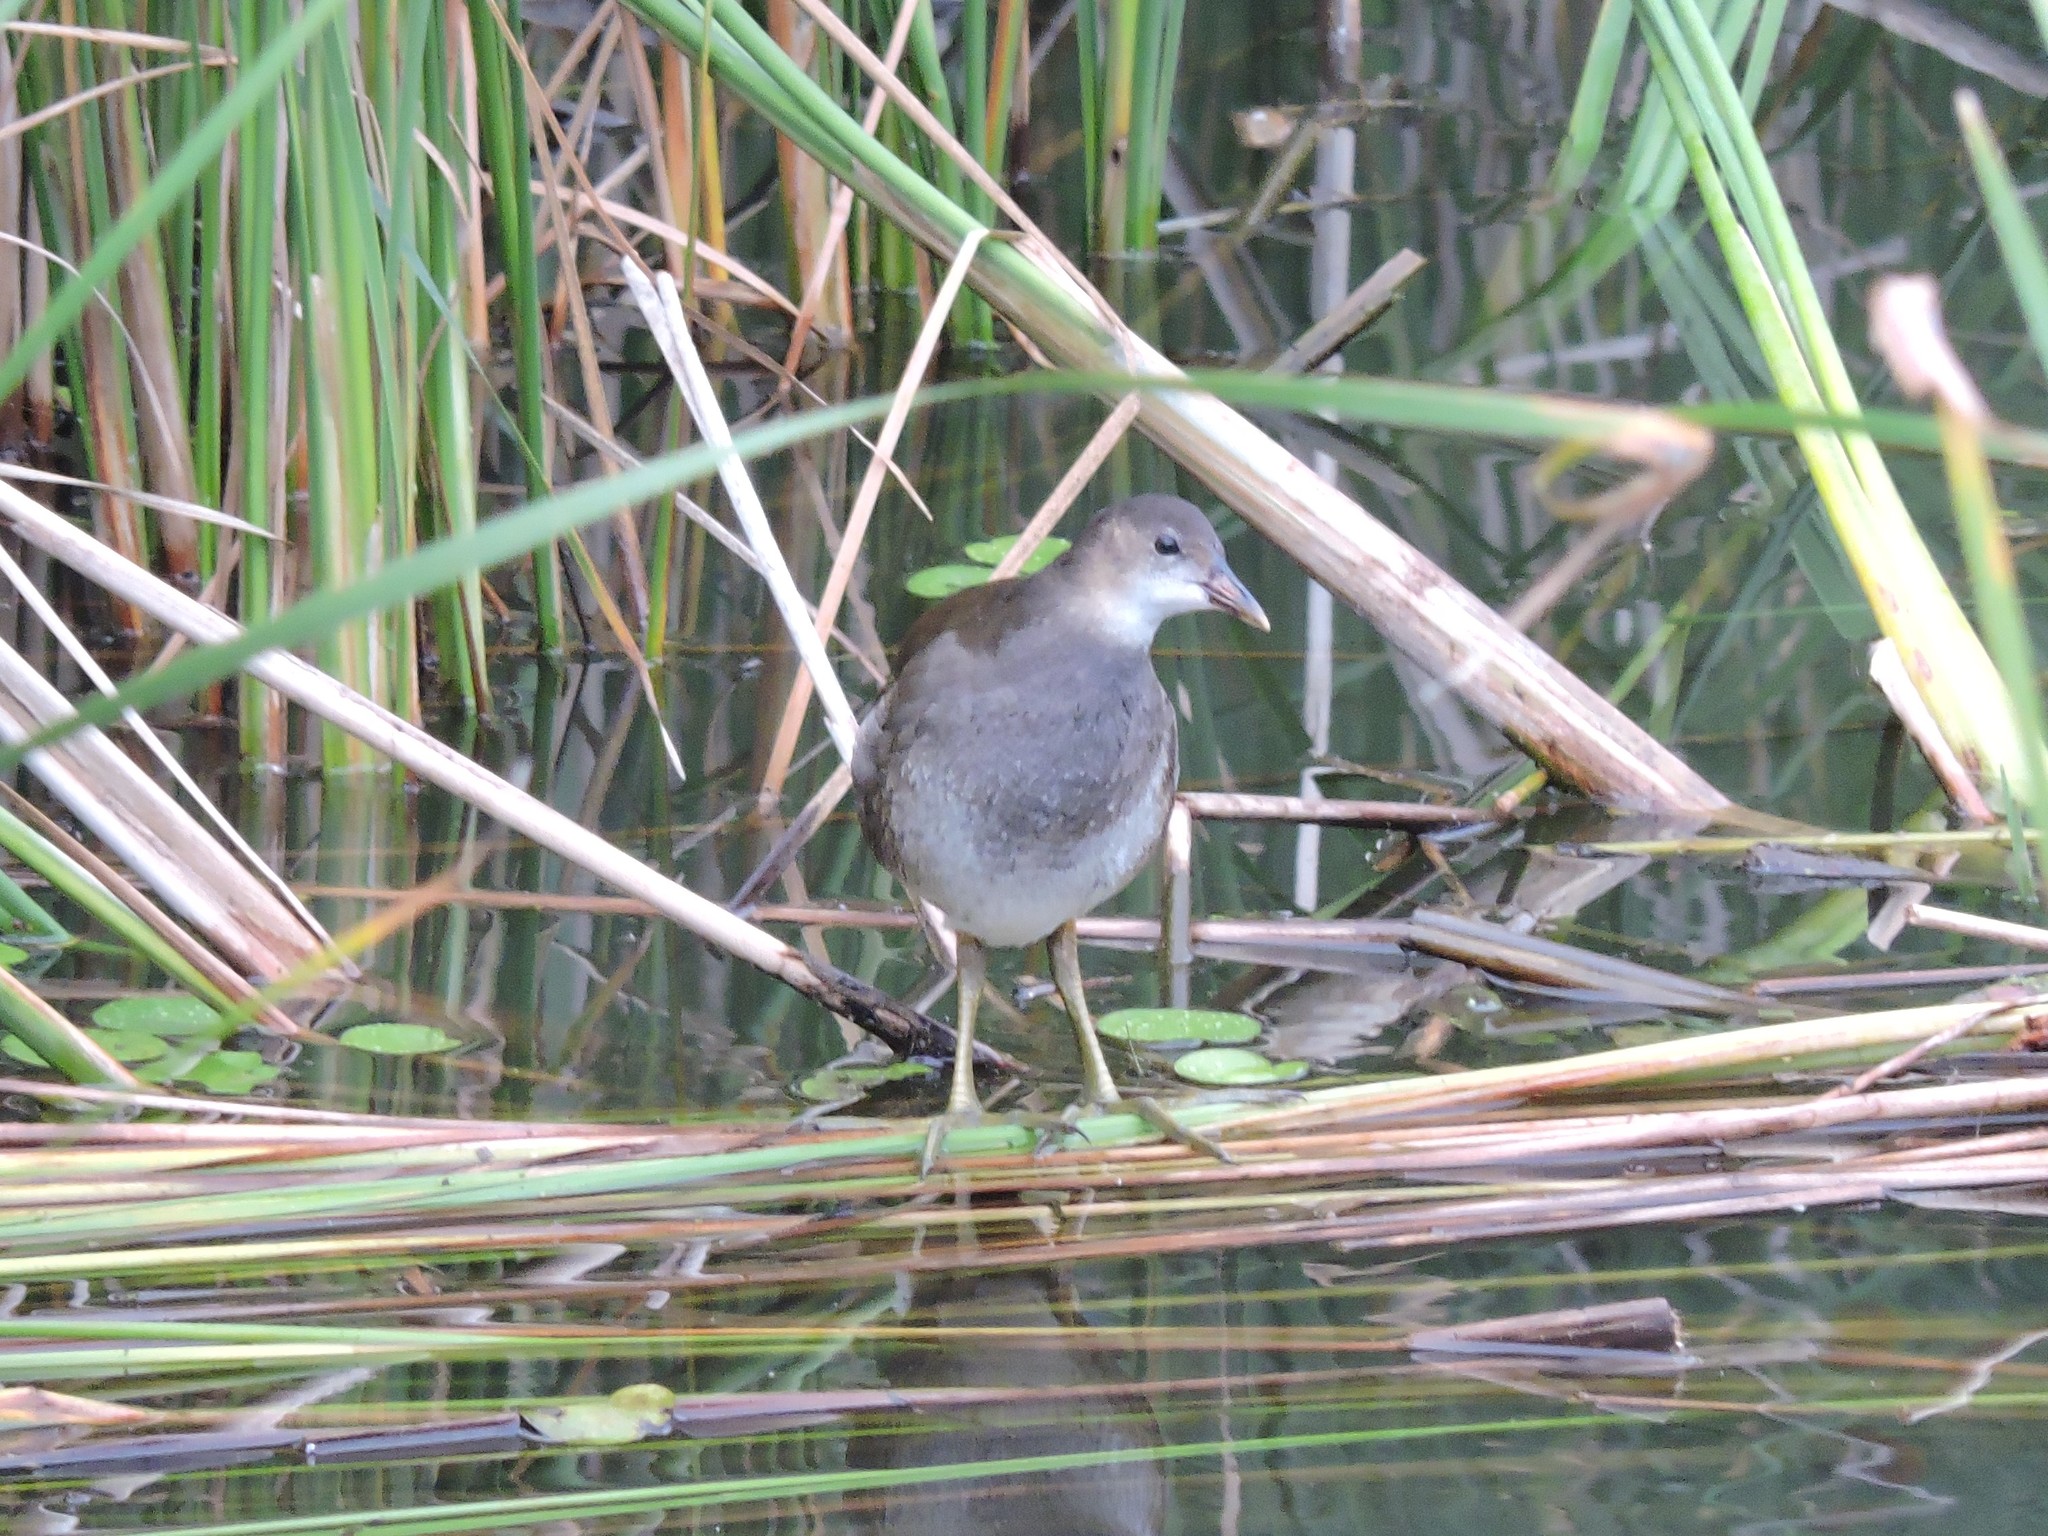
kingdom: Animalia
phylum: Chordata
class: Aves
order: Gruiformes
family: Rallidae
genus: Gallinula
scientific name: Gallinula chloropus
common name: Common moorhen
